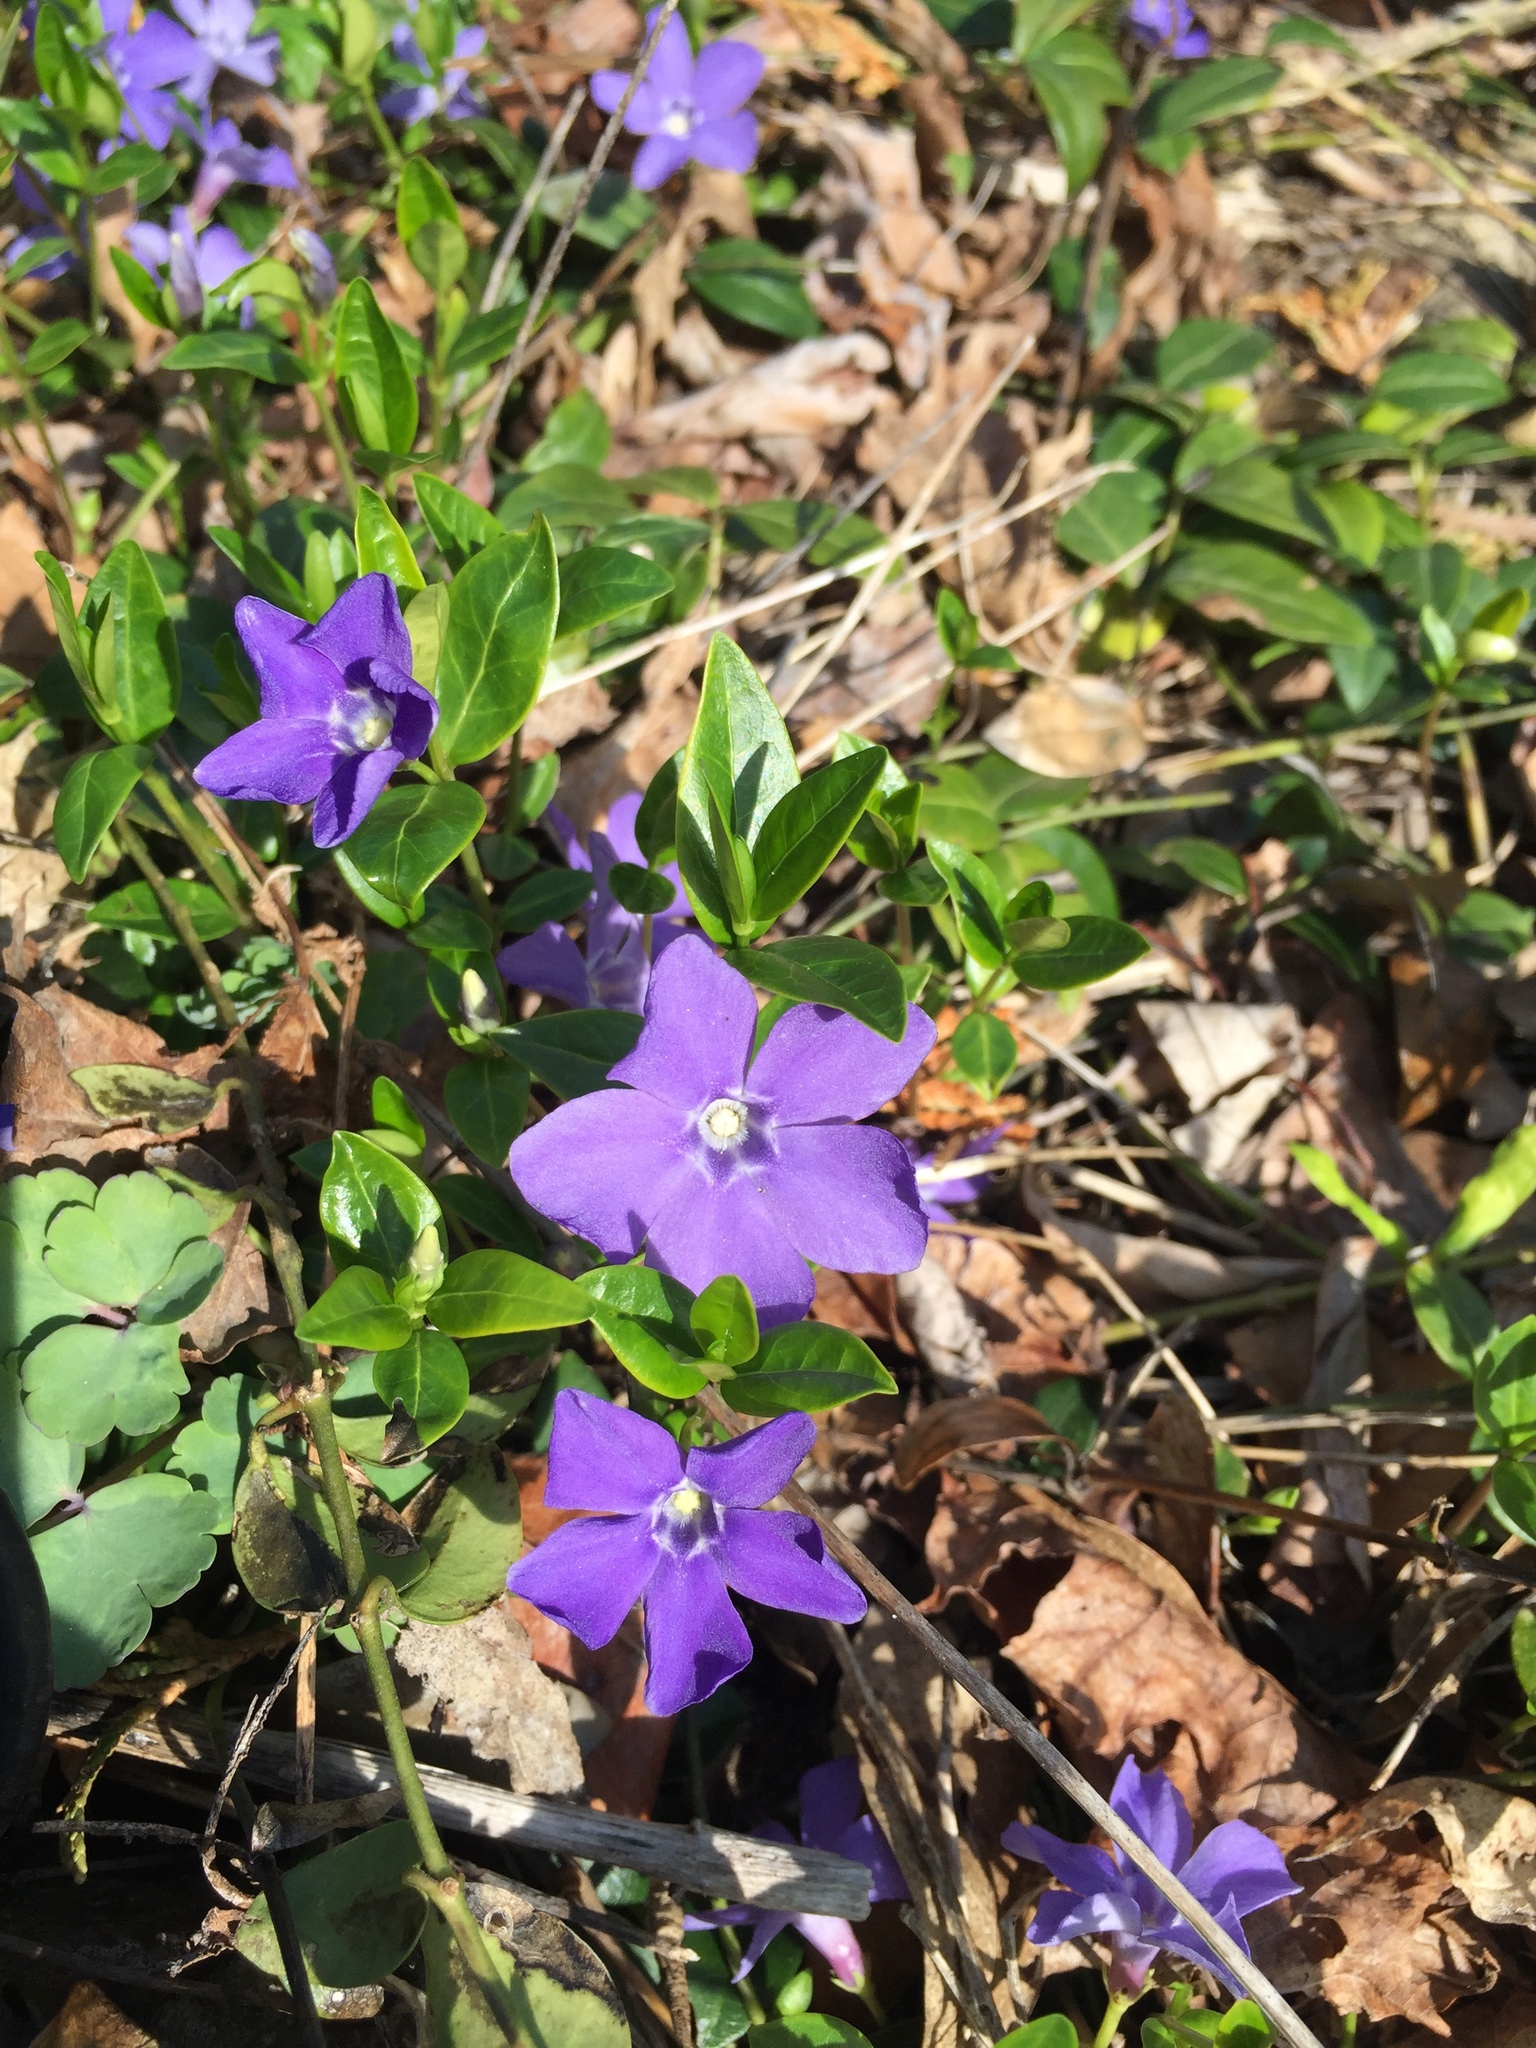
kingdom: Plantae
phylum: Tracheophyta
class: Magnoliopsida
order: Gentianales
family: Apocynaceae
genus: Vinca
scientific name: Vinca minor
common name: Lesser periwinkle
